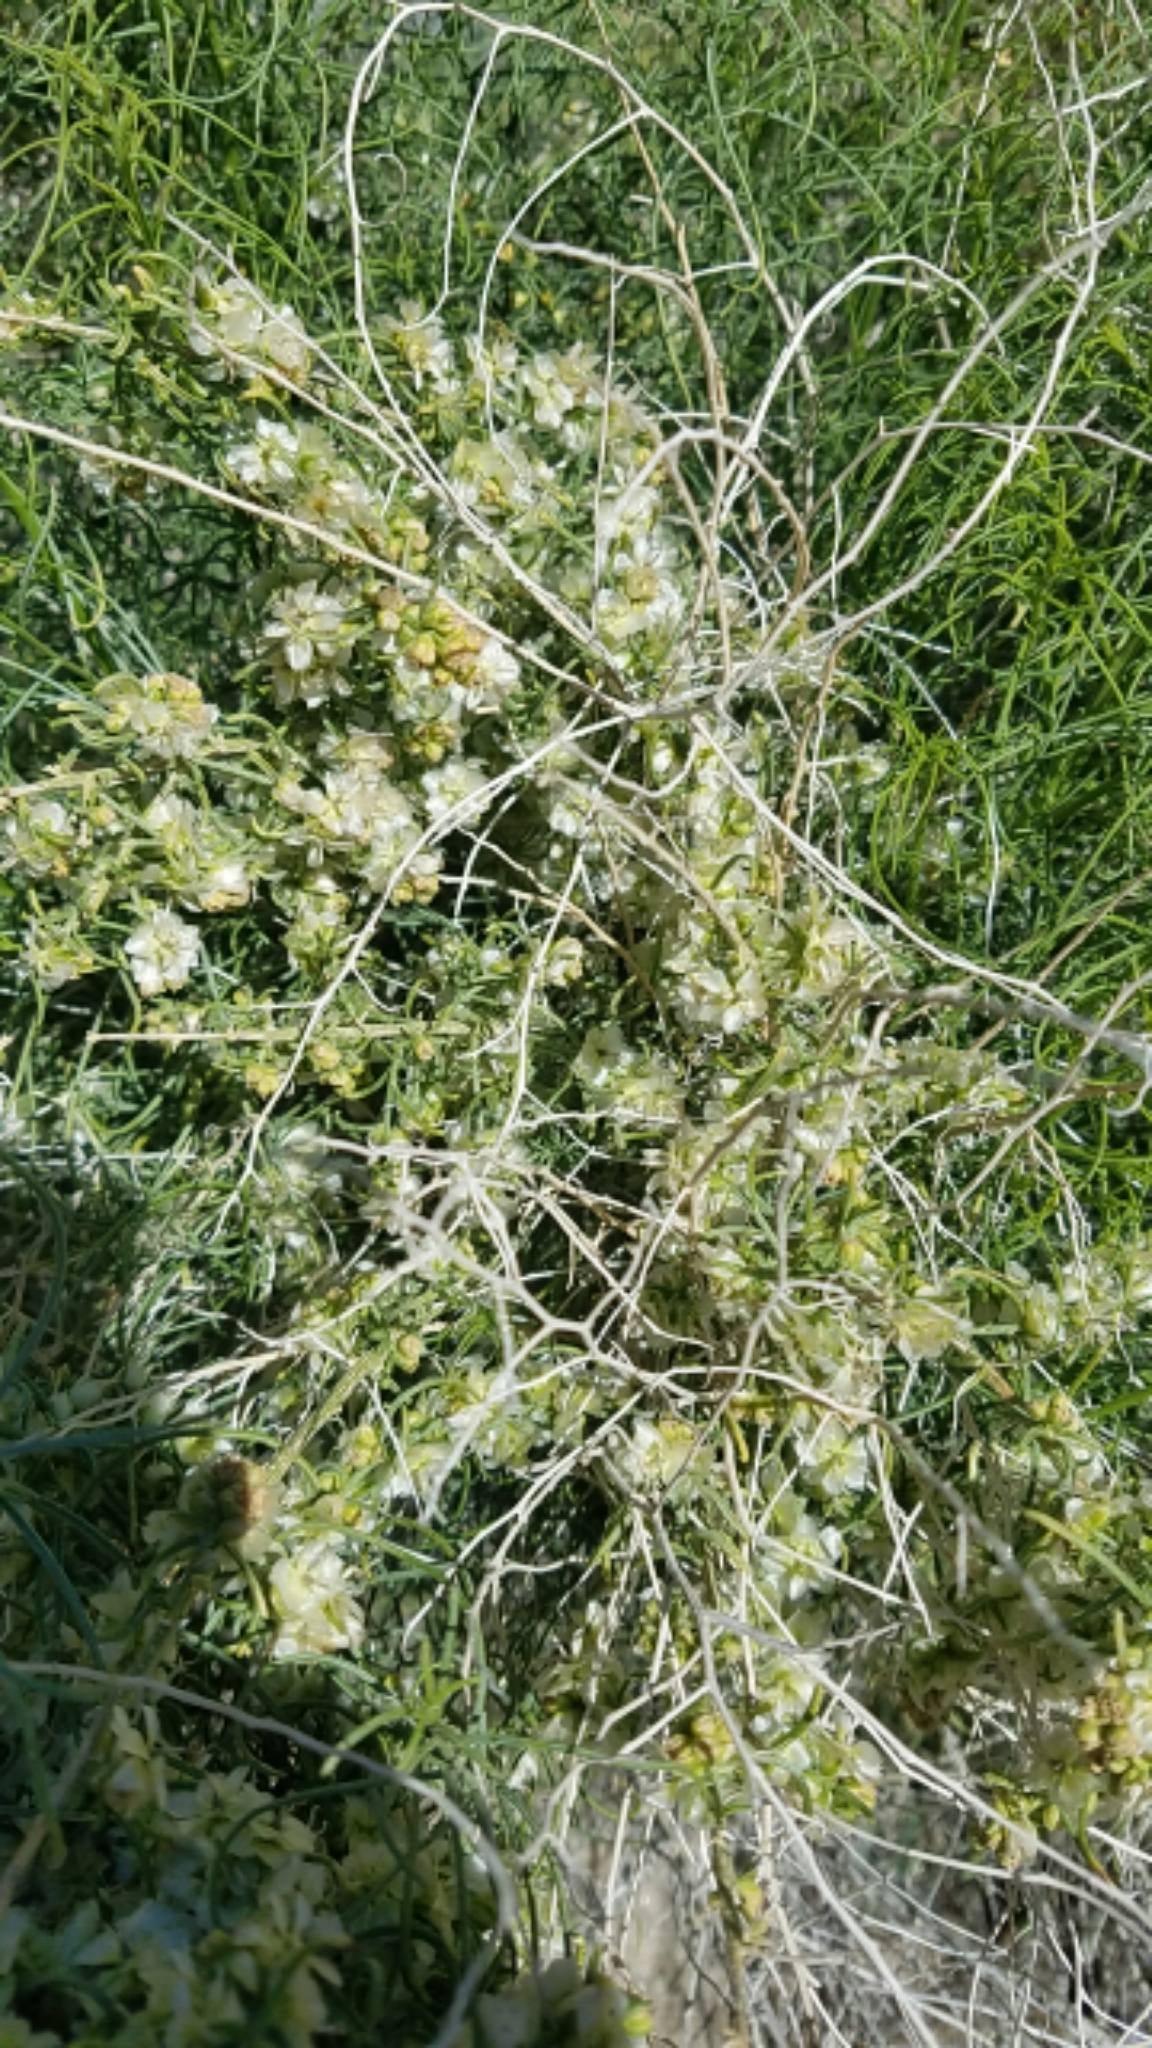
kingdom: Plantae
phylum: Tracheophyta
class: Magnoliopsida
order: Asterales
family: Asteraceae
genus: Ambrosia
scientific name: Ambrosia salsola
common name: Burrobrush
